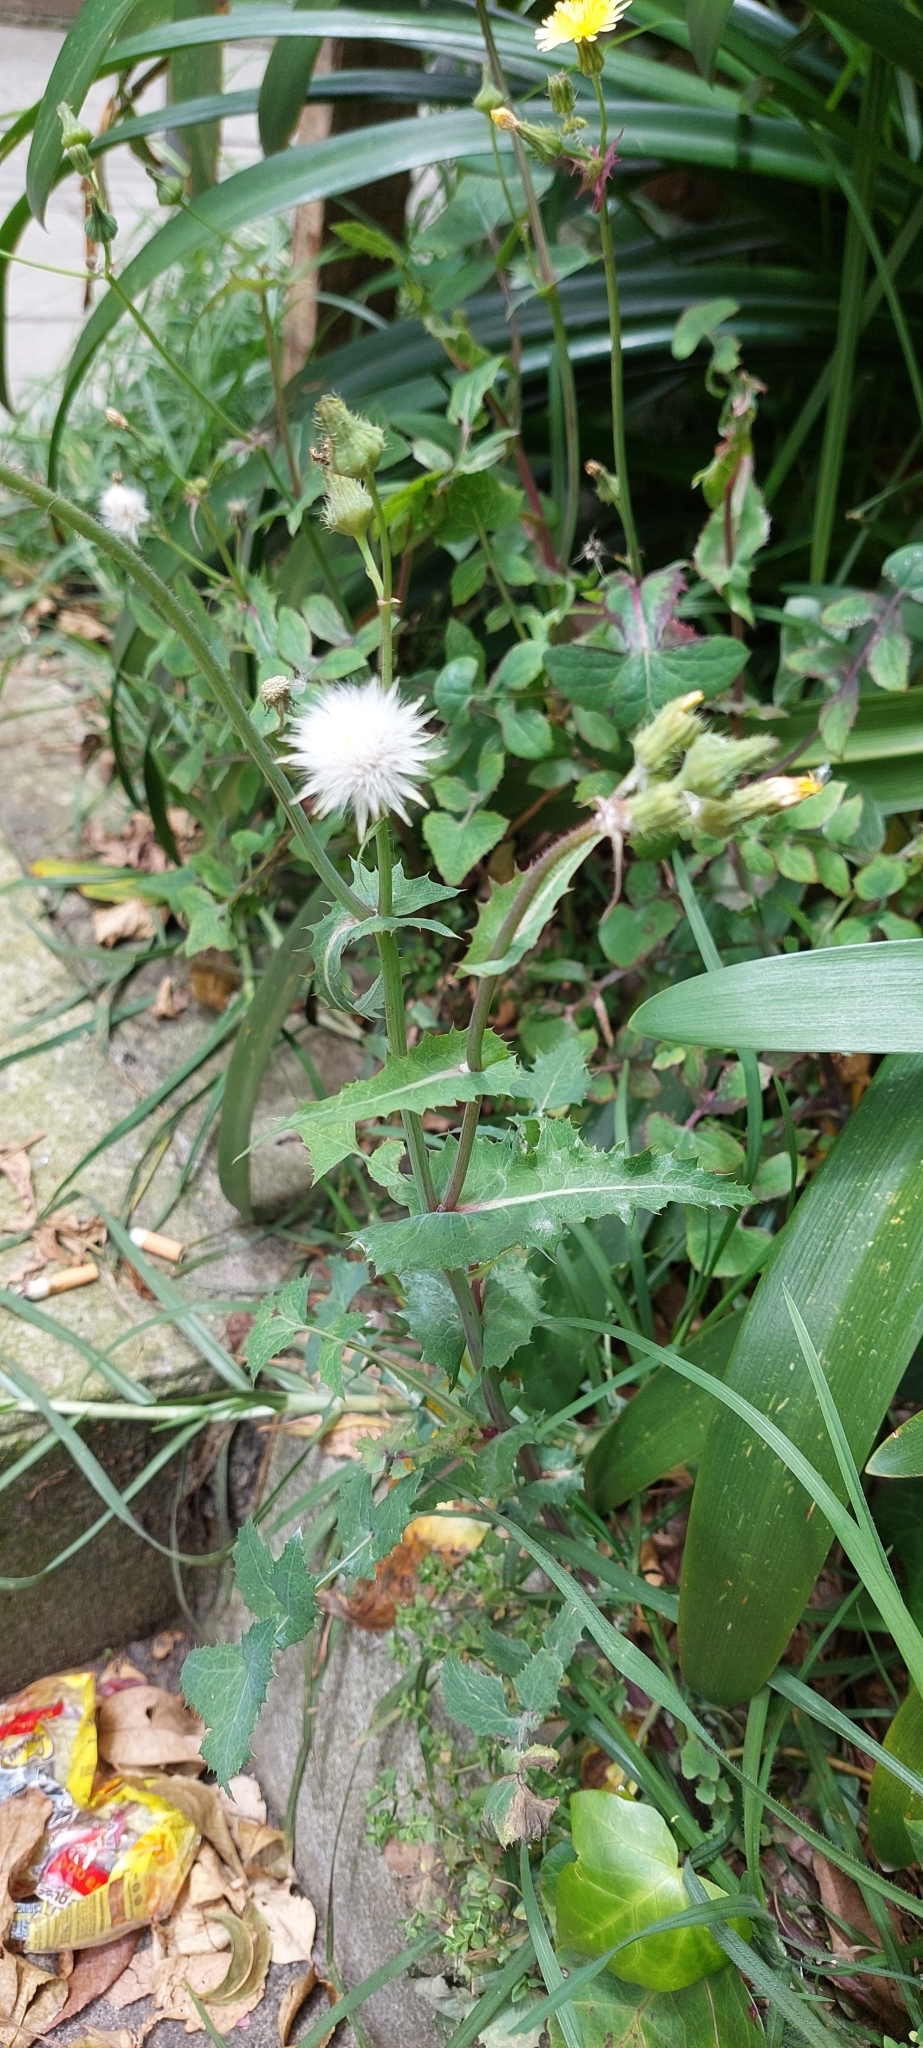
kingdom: Plantae
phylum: Tracheophyta
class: Magnoliopsida
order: Asterales
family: Asteraceae
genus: Sonchus
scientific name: Sonchus oleraceus
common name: Common sowthistle
